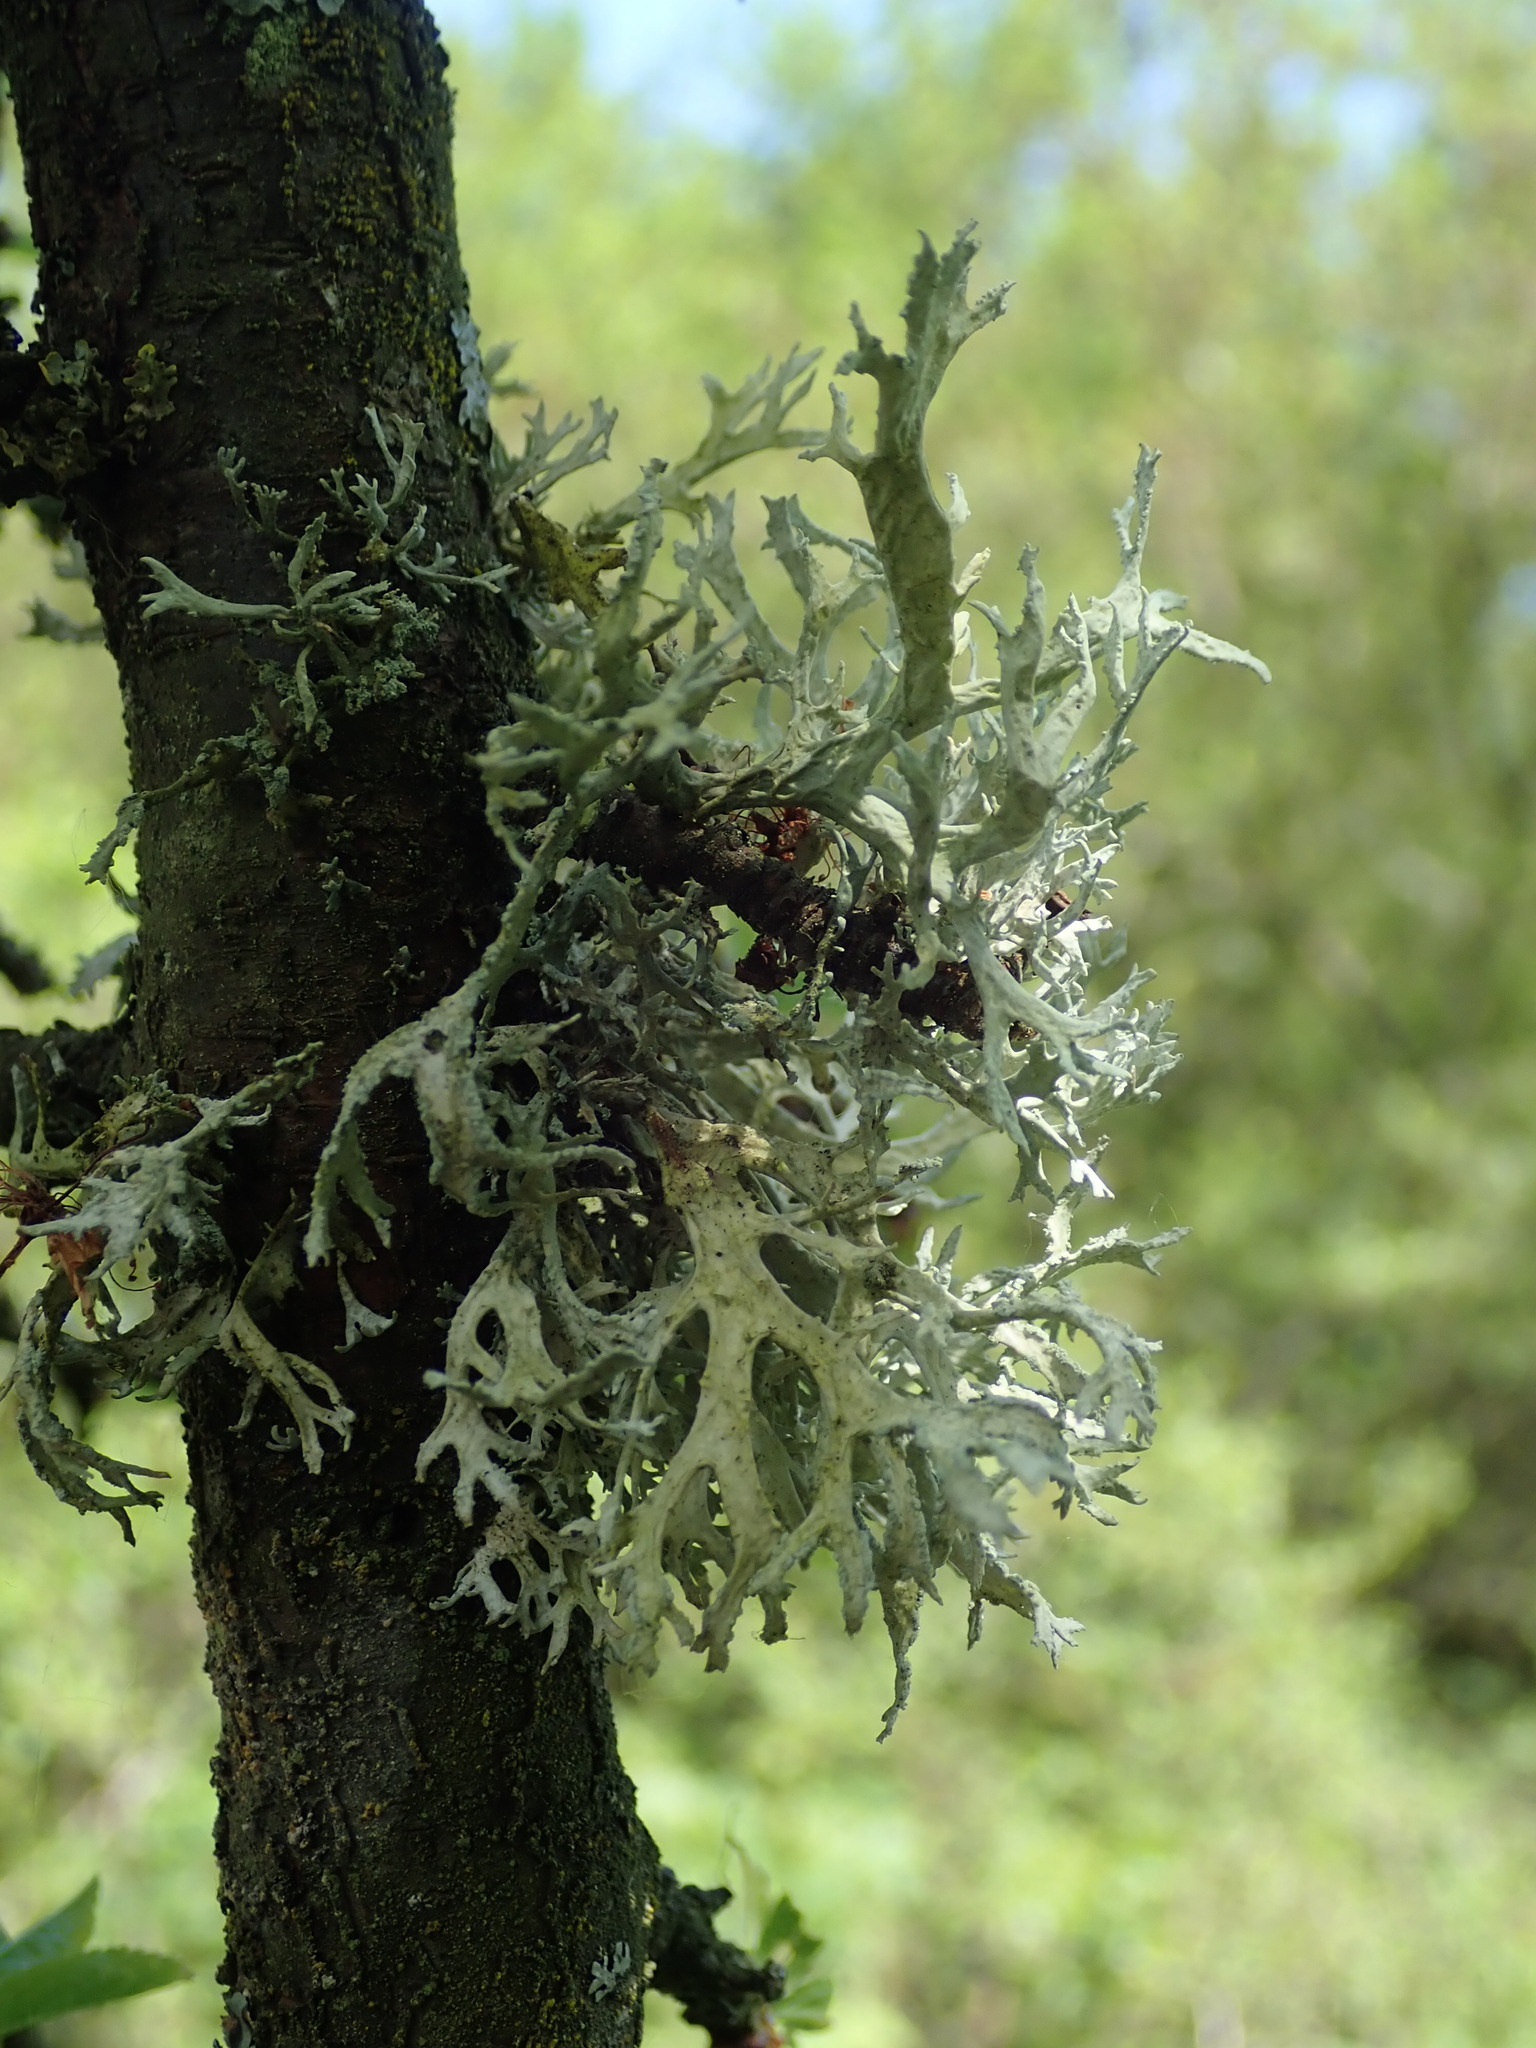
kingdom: Fungi
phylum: Ascomycota
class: Lecanoromycetes
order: Lecanorales
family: Parmeliaceae
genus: Evernia
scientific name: Evernia prunastri
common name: Oak moss
